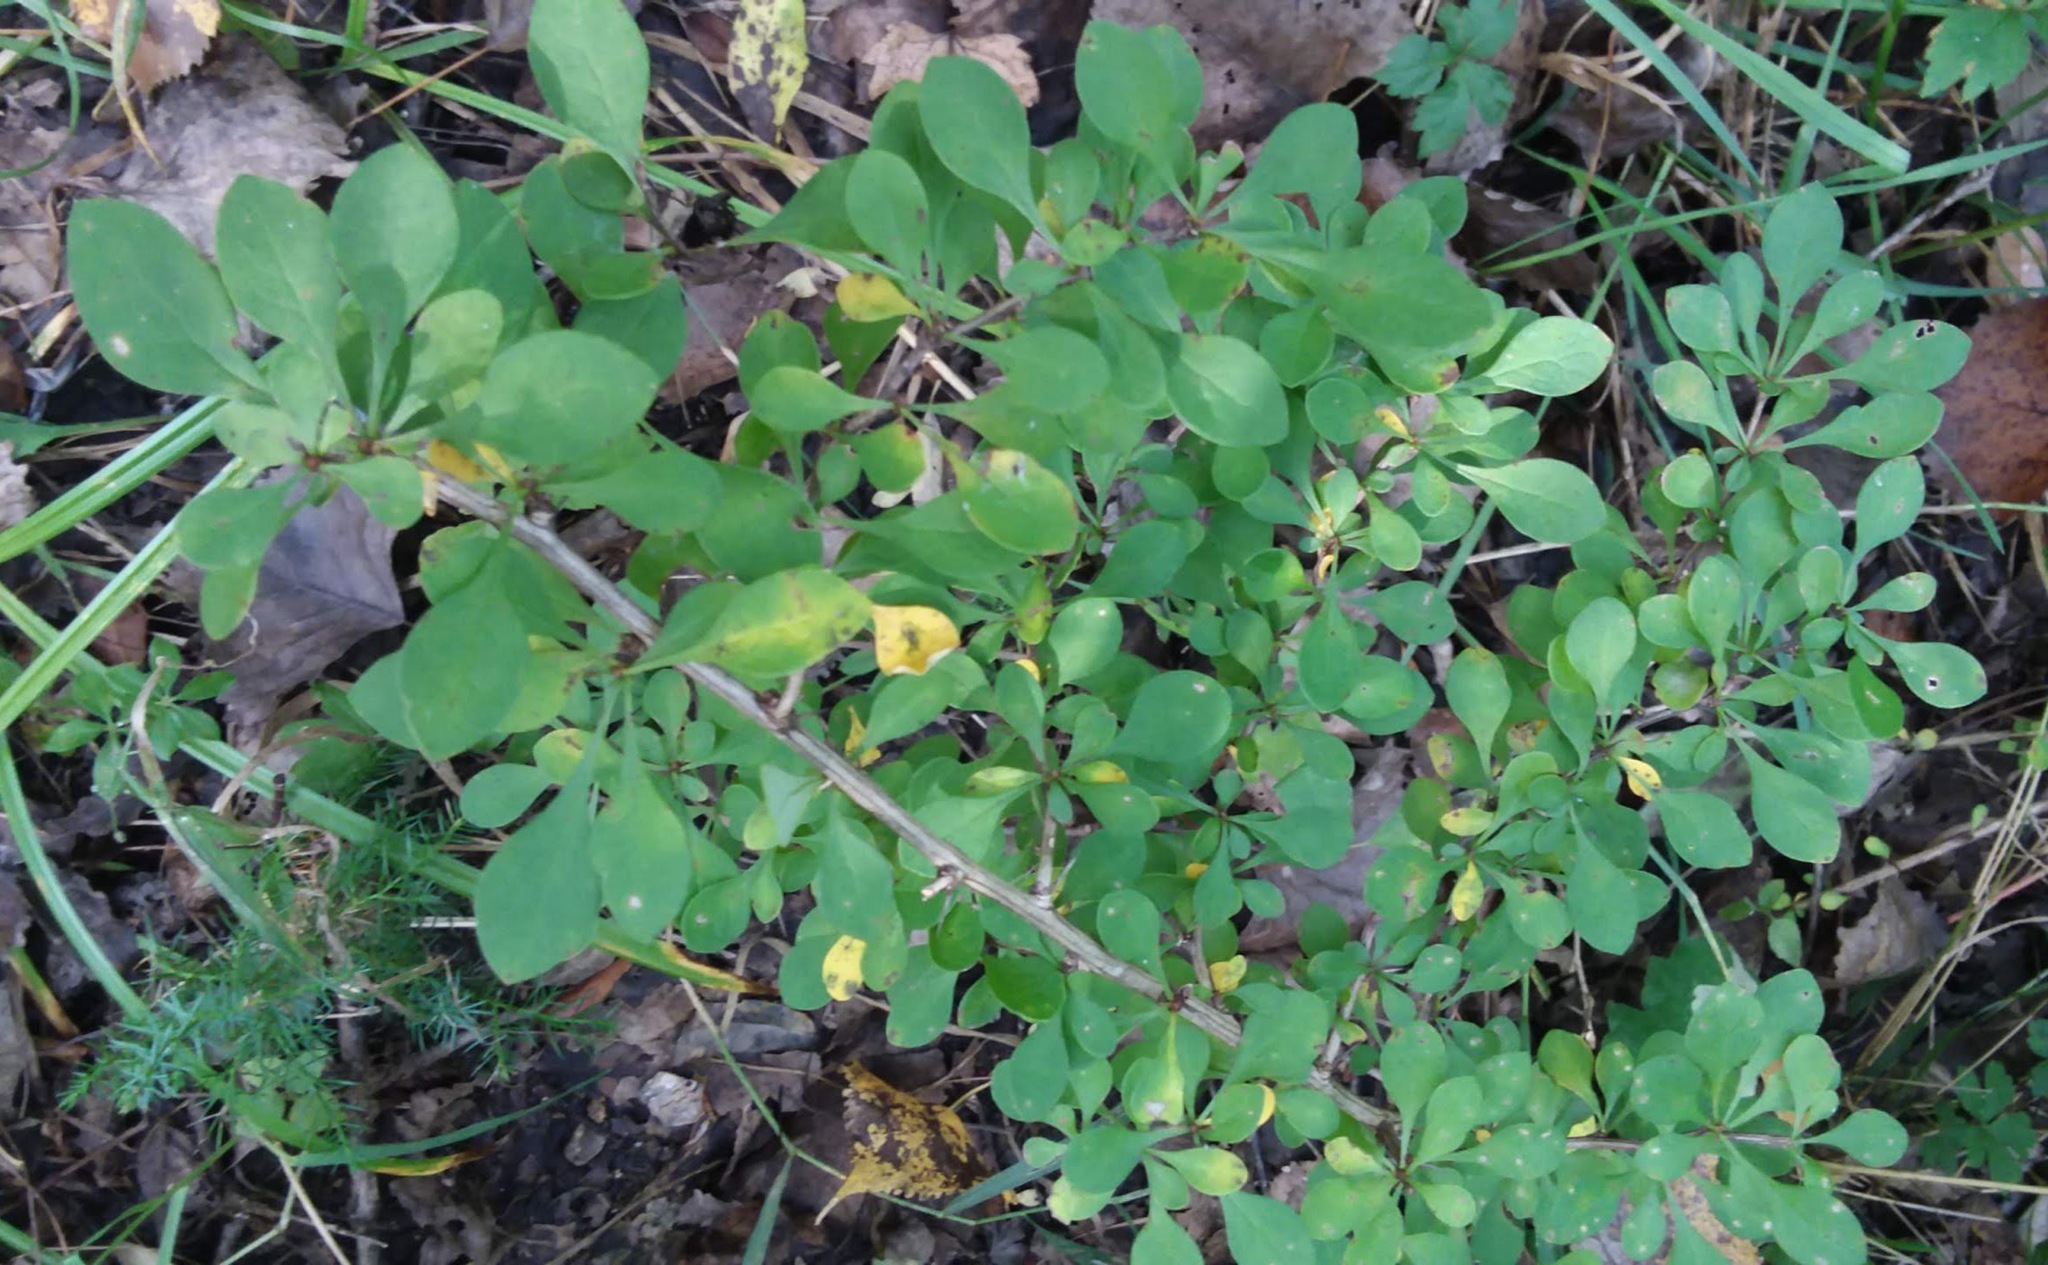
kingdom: Plantae
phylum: Tracheophyta
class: Magnoliopsida
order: Ranunculales
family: Berberidaceae
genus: Berberis
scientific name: Berberis thunbergii
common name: Japanese barberry
